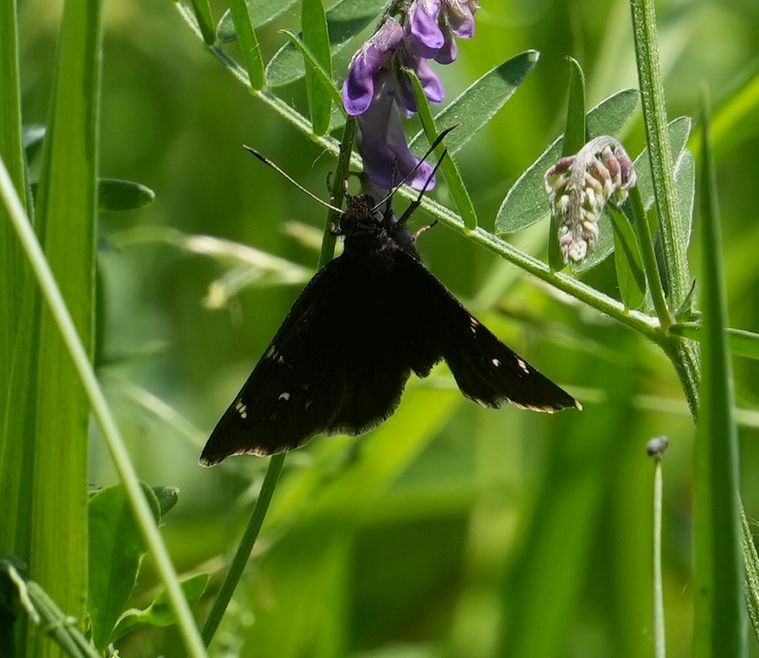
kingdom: Animalia
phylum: Arthropoda
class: Insecta
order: Lepidoptera
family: Hesperiidae
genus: Thorybes
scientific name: Thorybes pylades
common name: Northern cloudywing
